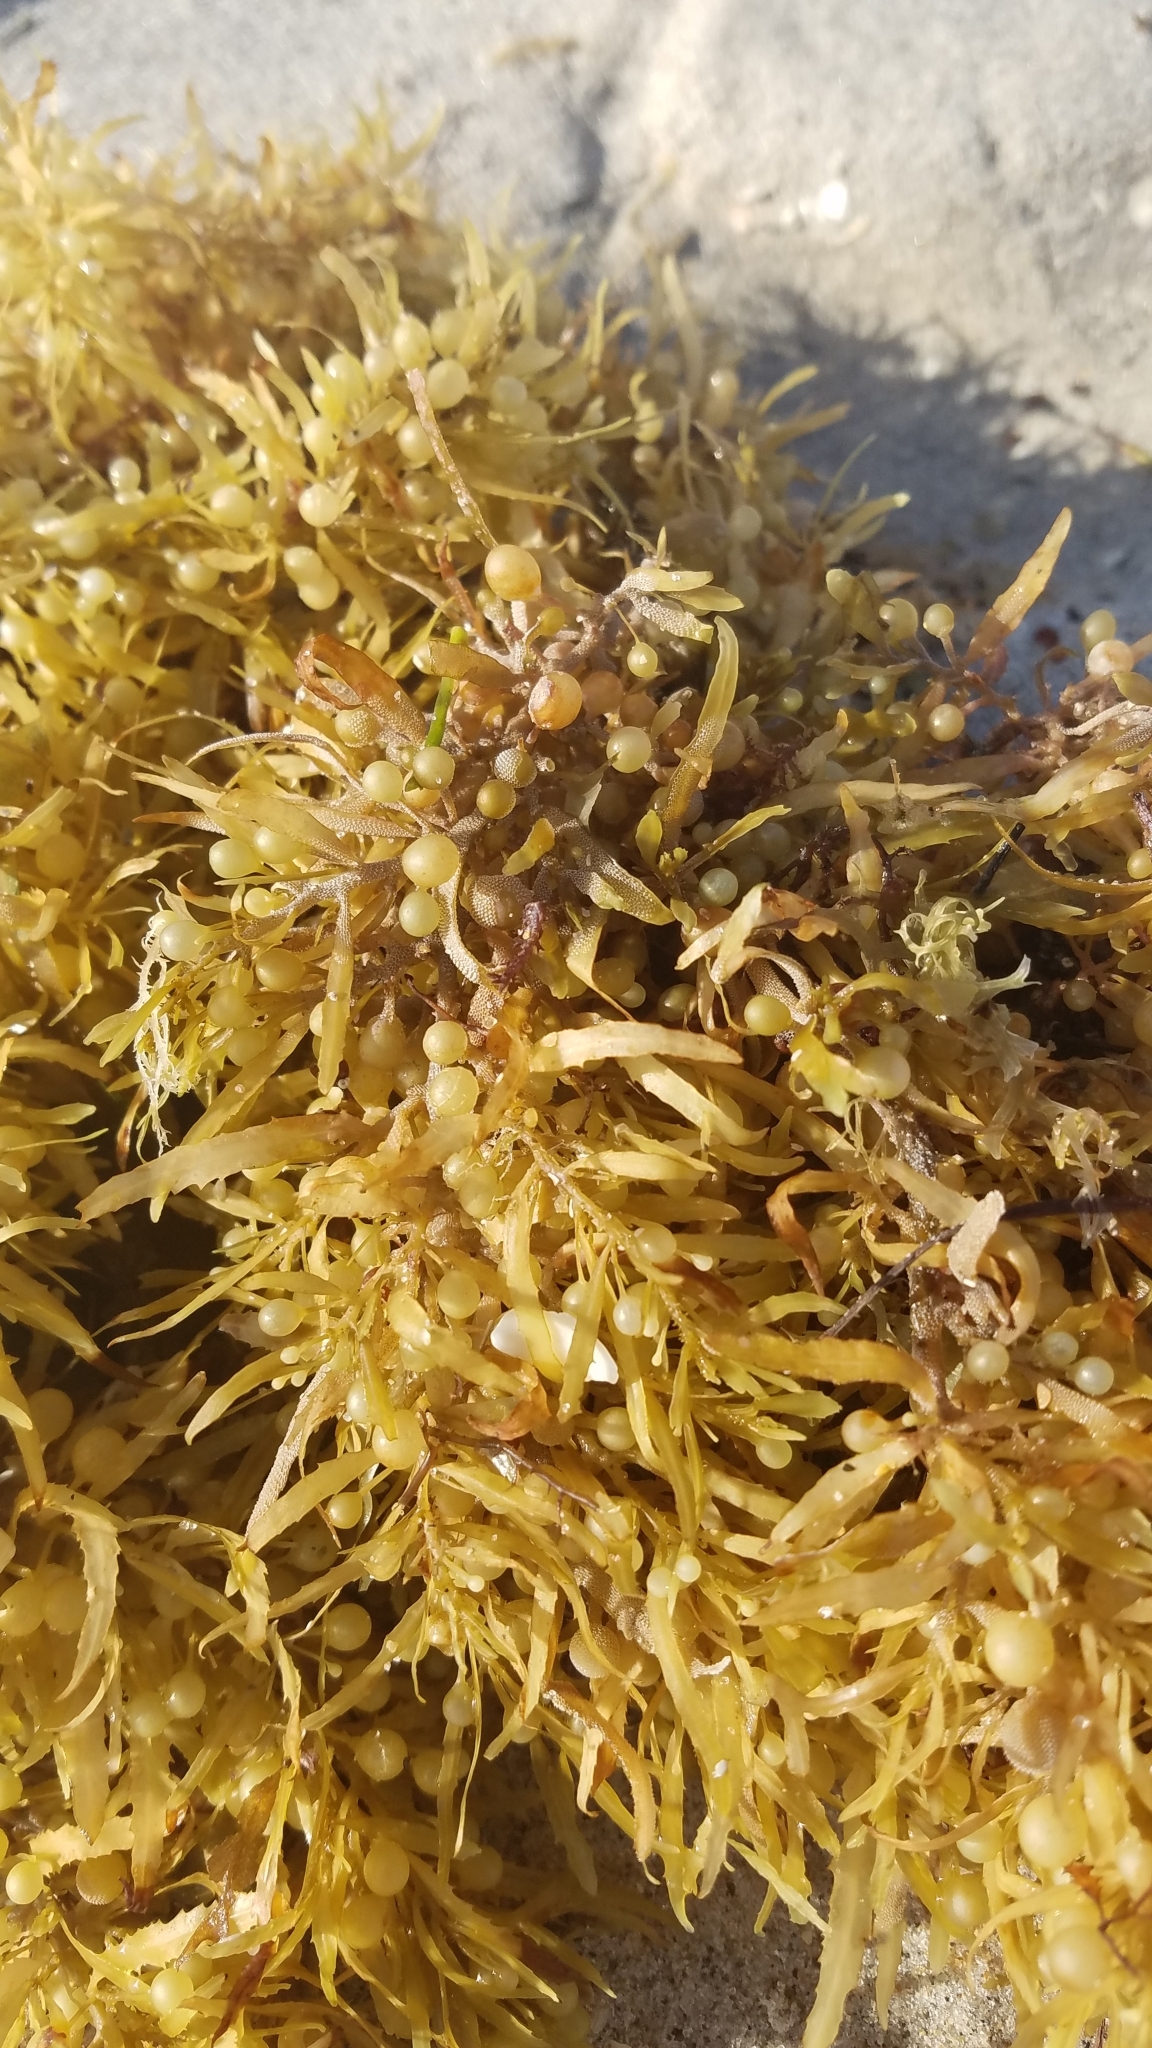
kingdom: Chromista
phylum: Ochrophyta
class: Phaeophyceae
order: Fucales
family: Sargassaceae
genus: Sargassum
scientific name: Sargassum fluitans
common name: Sargassum seaweed
